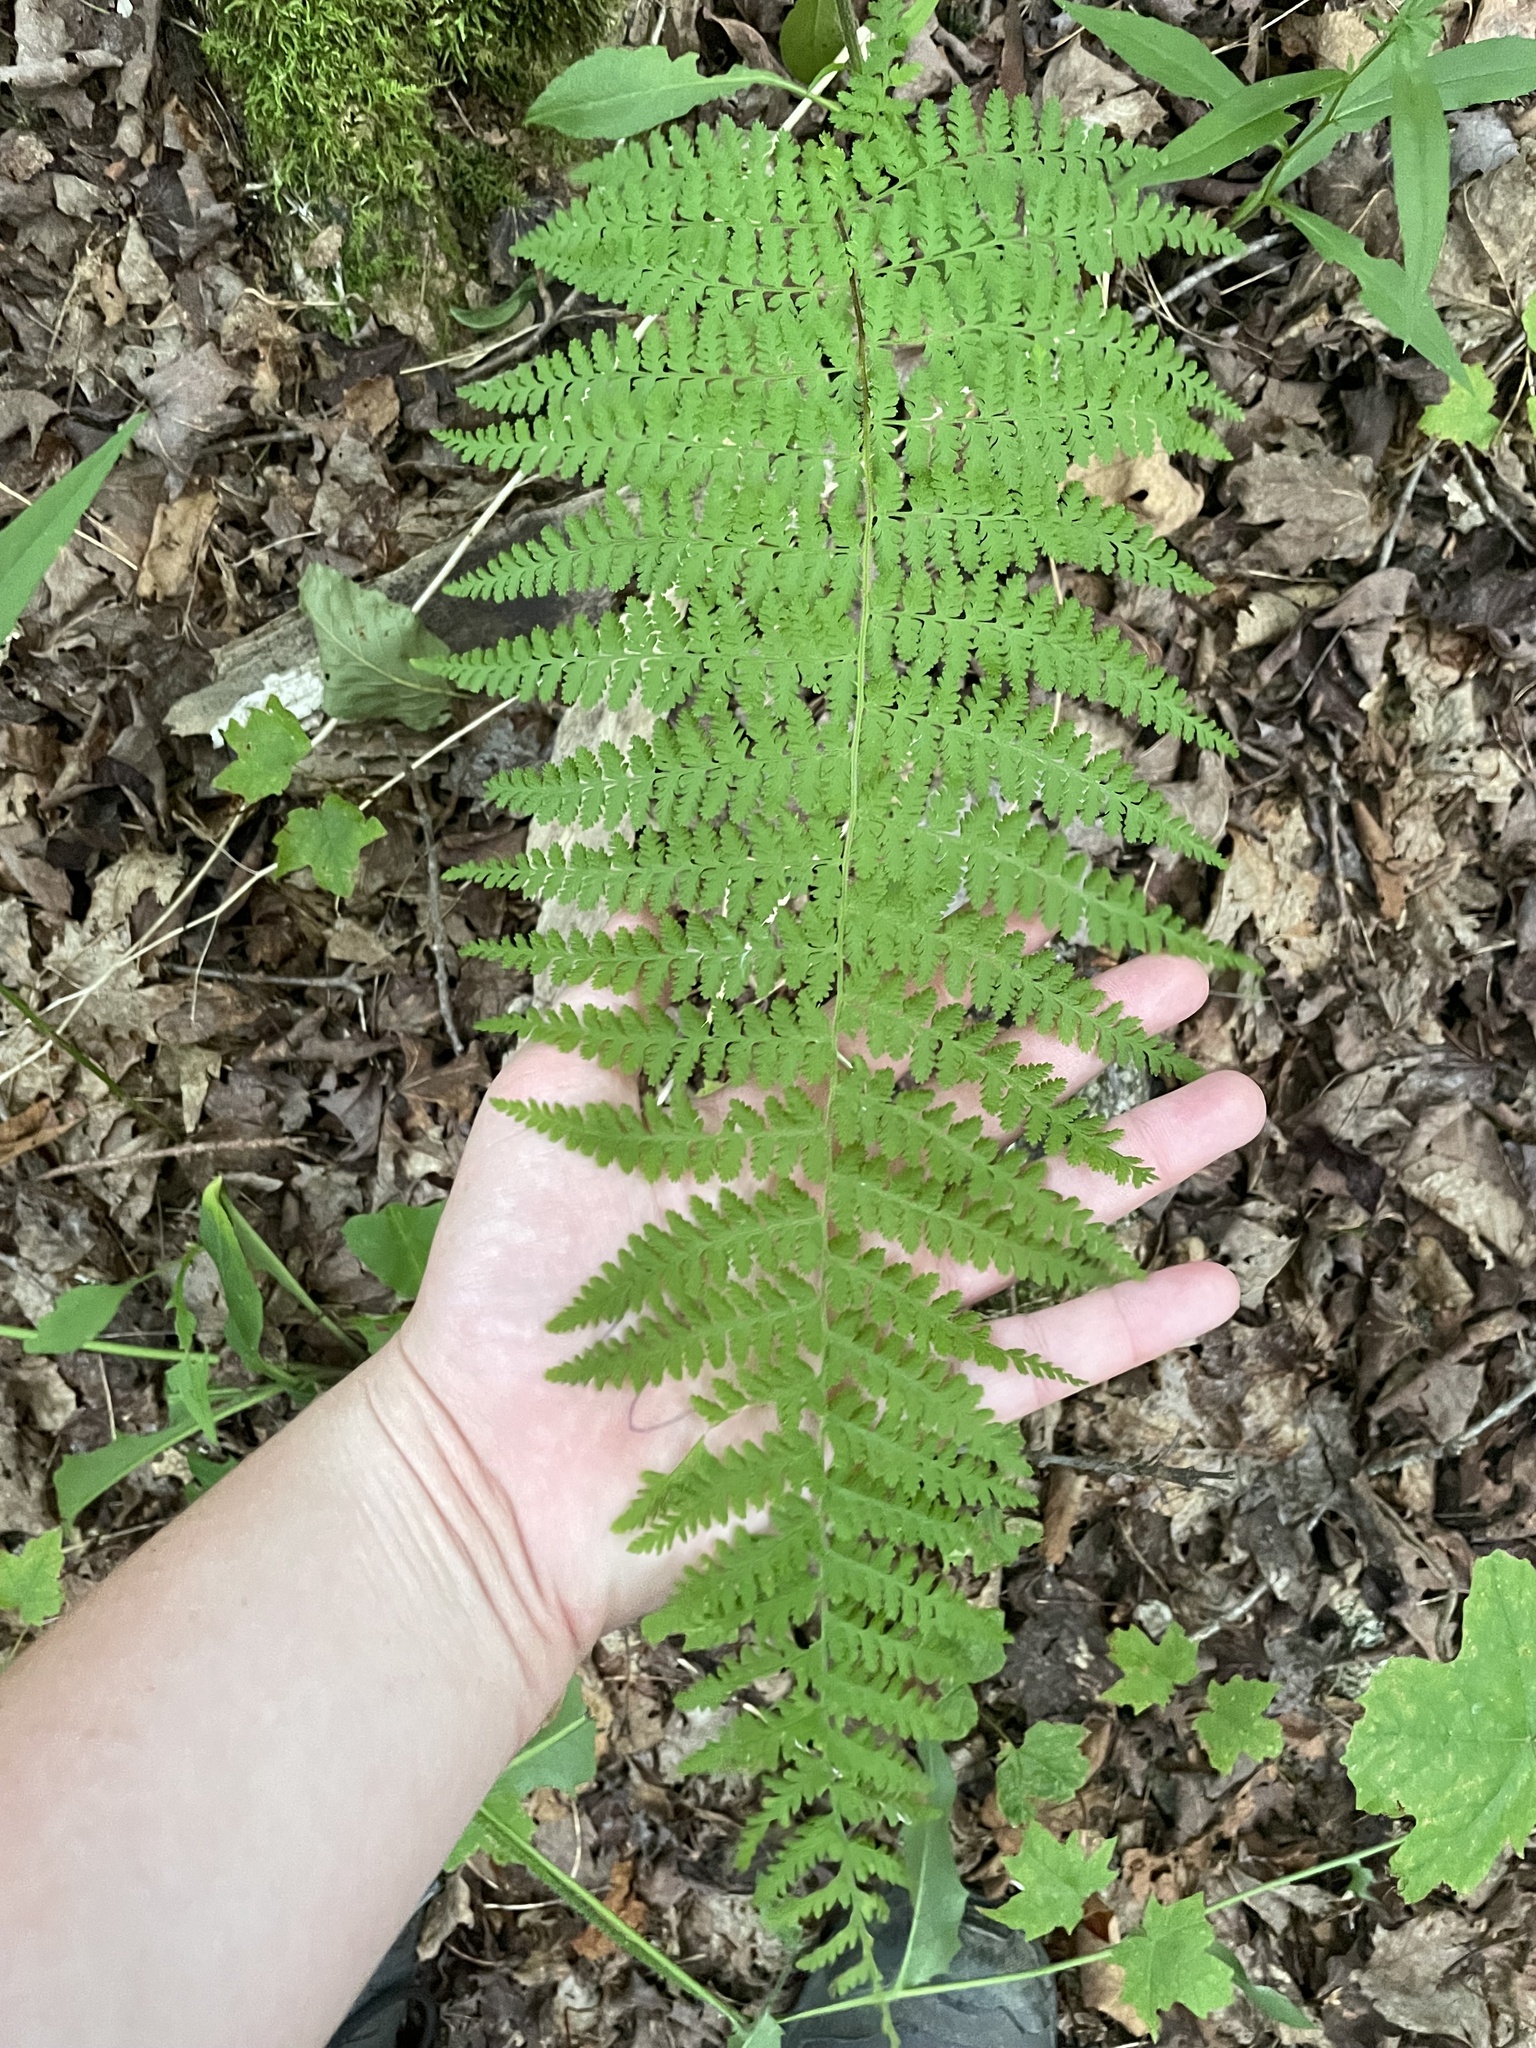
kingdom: Plantae
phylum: Tracheophyta
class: Polypodiopsida
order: Polypodiales
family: Dennstaedtiaceae
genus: Sitobolium
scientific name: Sitobolium punctilobum
